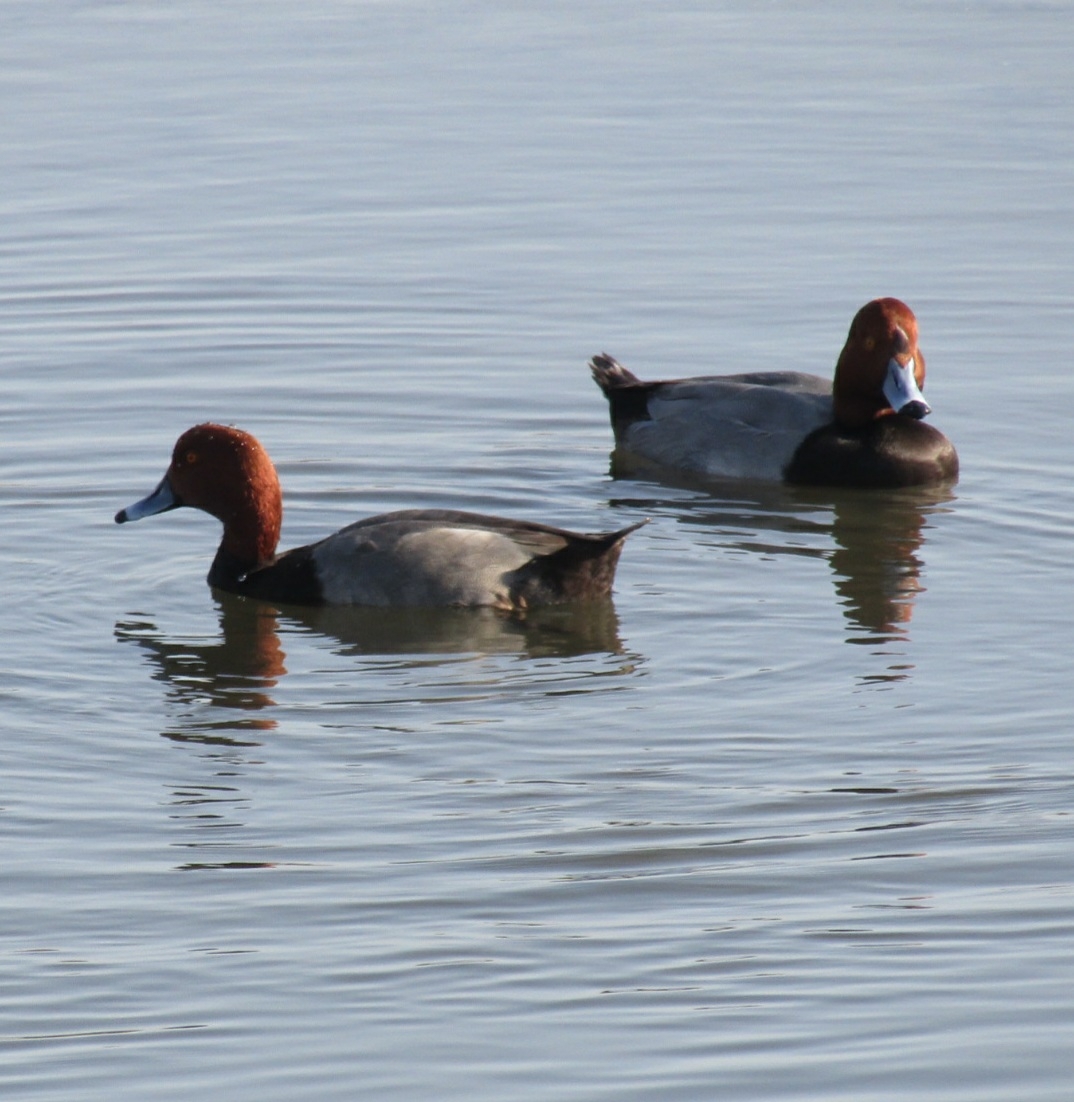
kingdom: Animalia
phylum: Chordata
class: Aves
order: Anseriformes
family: Anatidae
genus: Aythya
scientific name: Aythya americana
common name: Redhead
